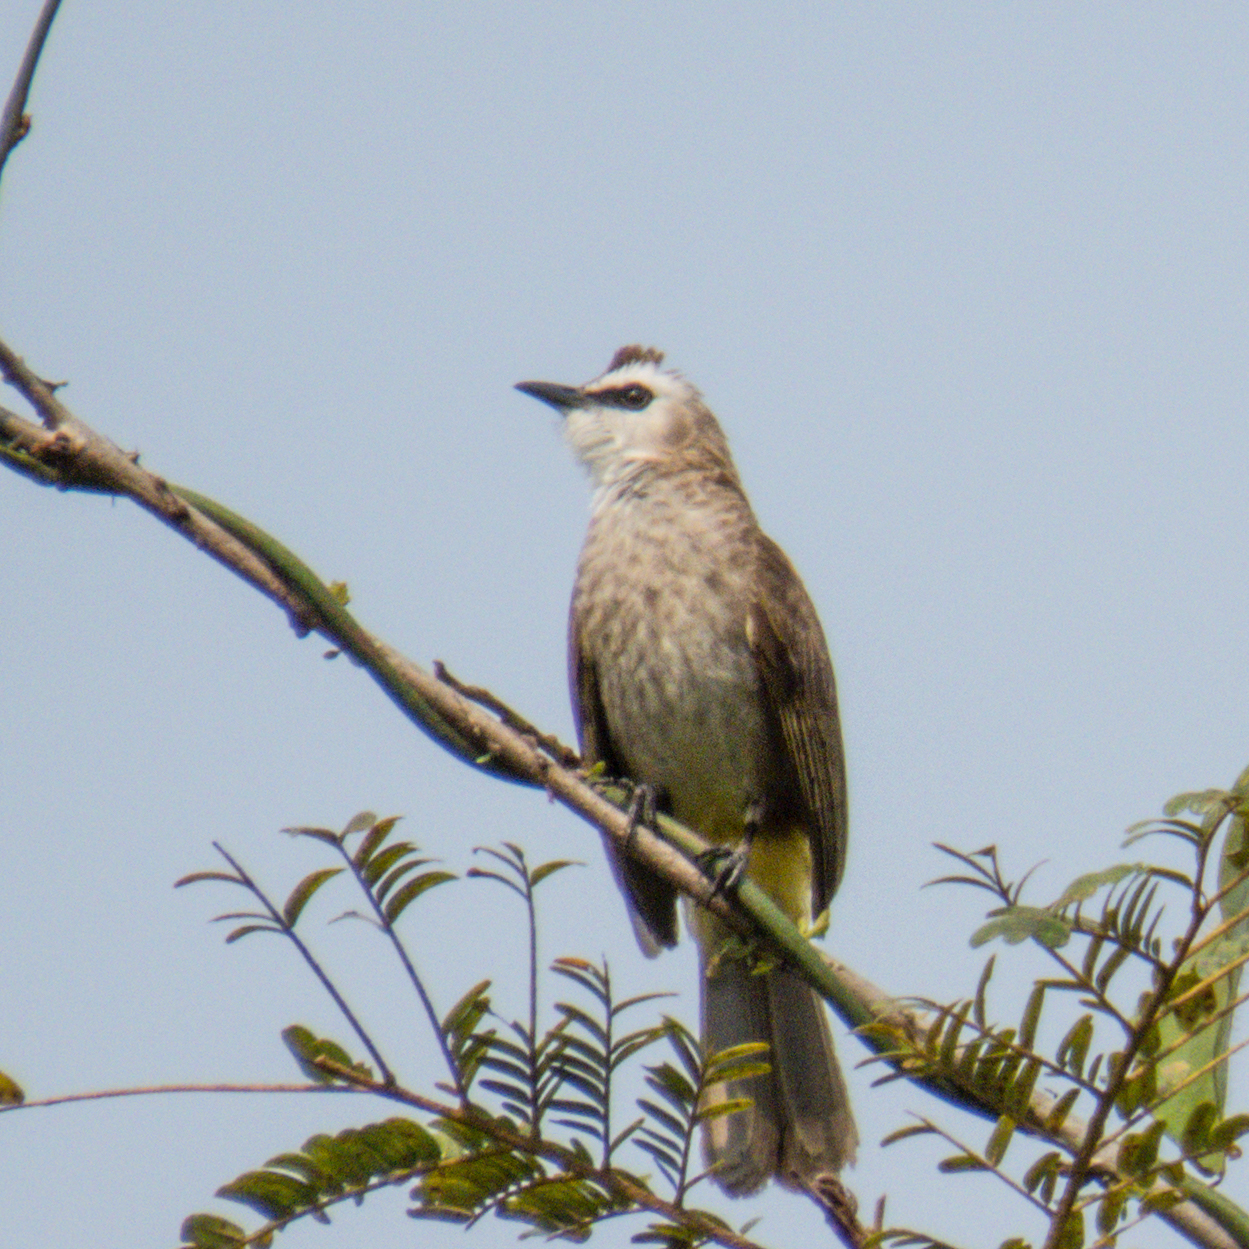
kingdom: Animalia
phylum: Chordata
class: Aves
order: Passeriformes
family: Pycnonotidae
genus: Pycnonotus
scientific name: Pycnonotus goiavier
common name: Yellow-vented bulbul
